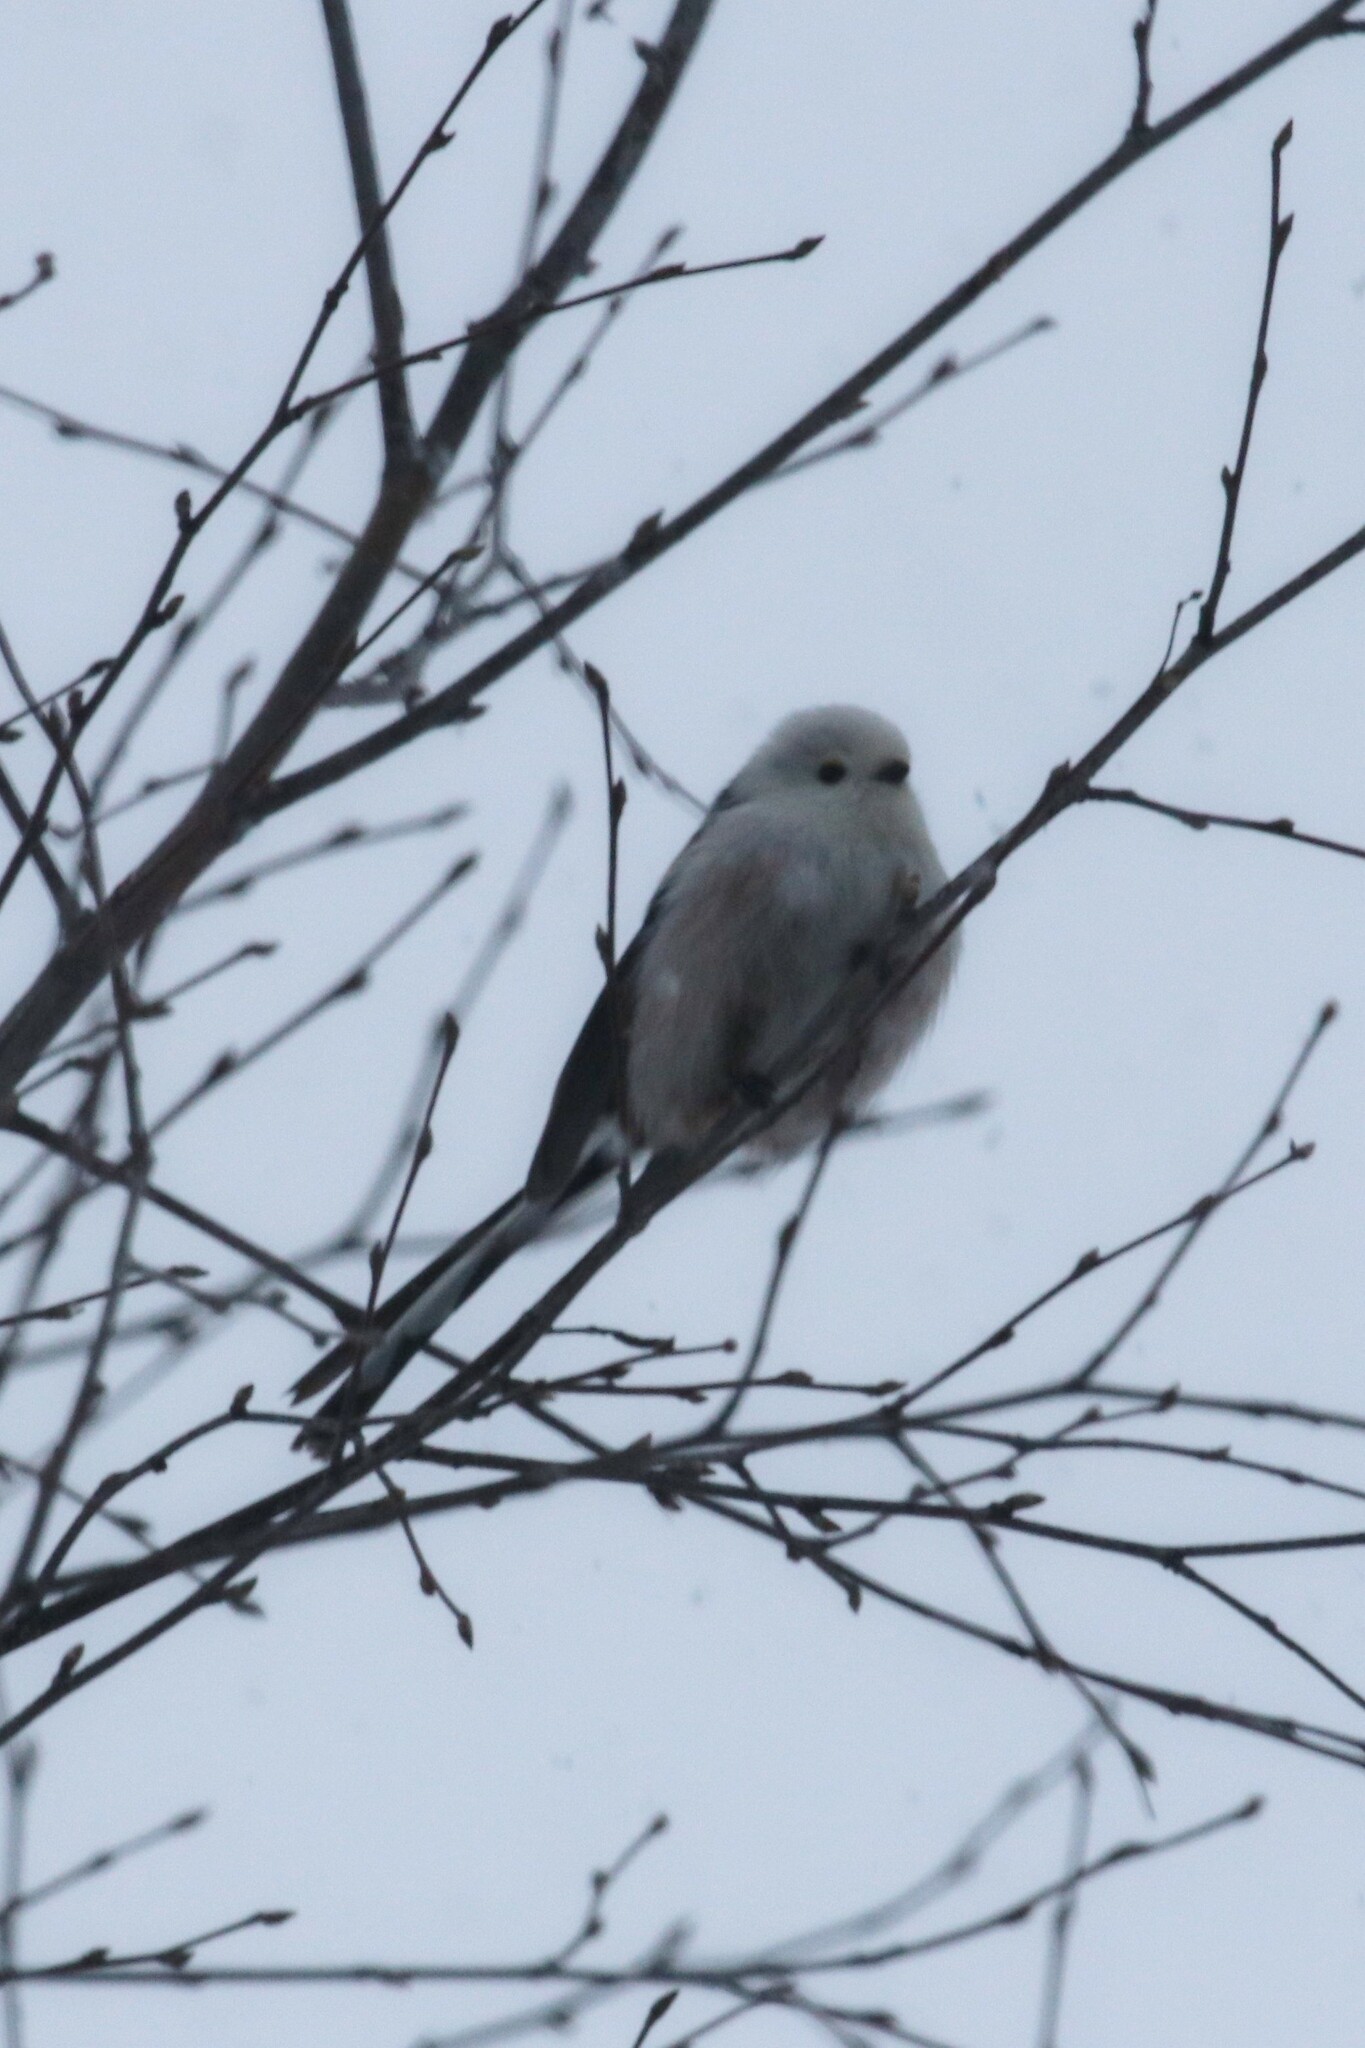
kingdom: Animalia
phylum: Chordata
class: Aves
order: Passeriformes
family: Aegithalidae
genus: Aegithalos
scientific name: Aegithalos caudatus
